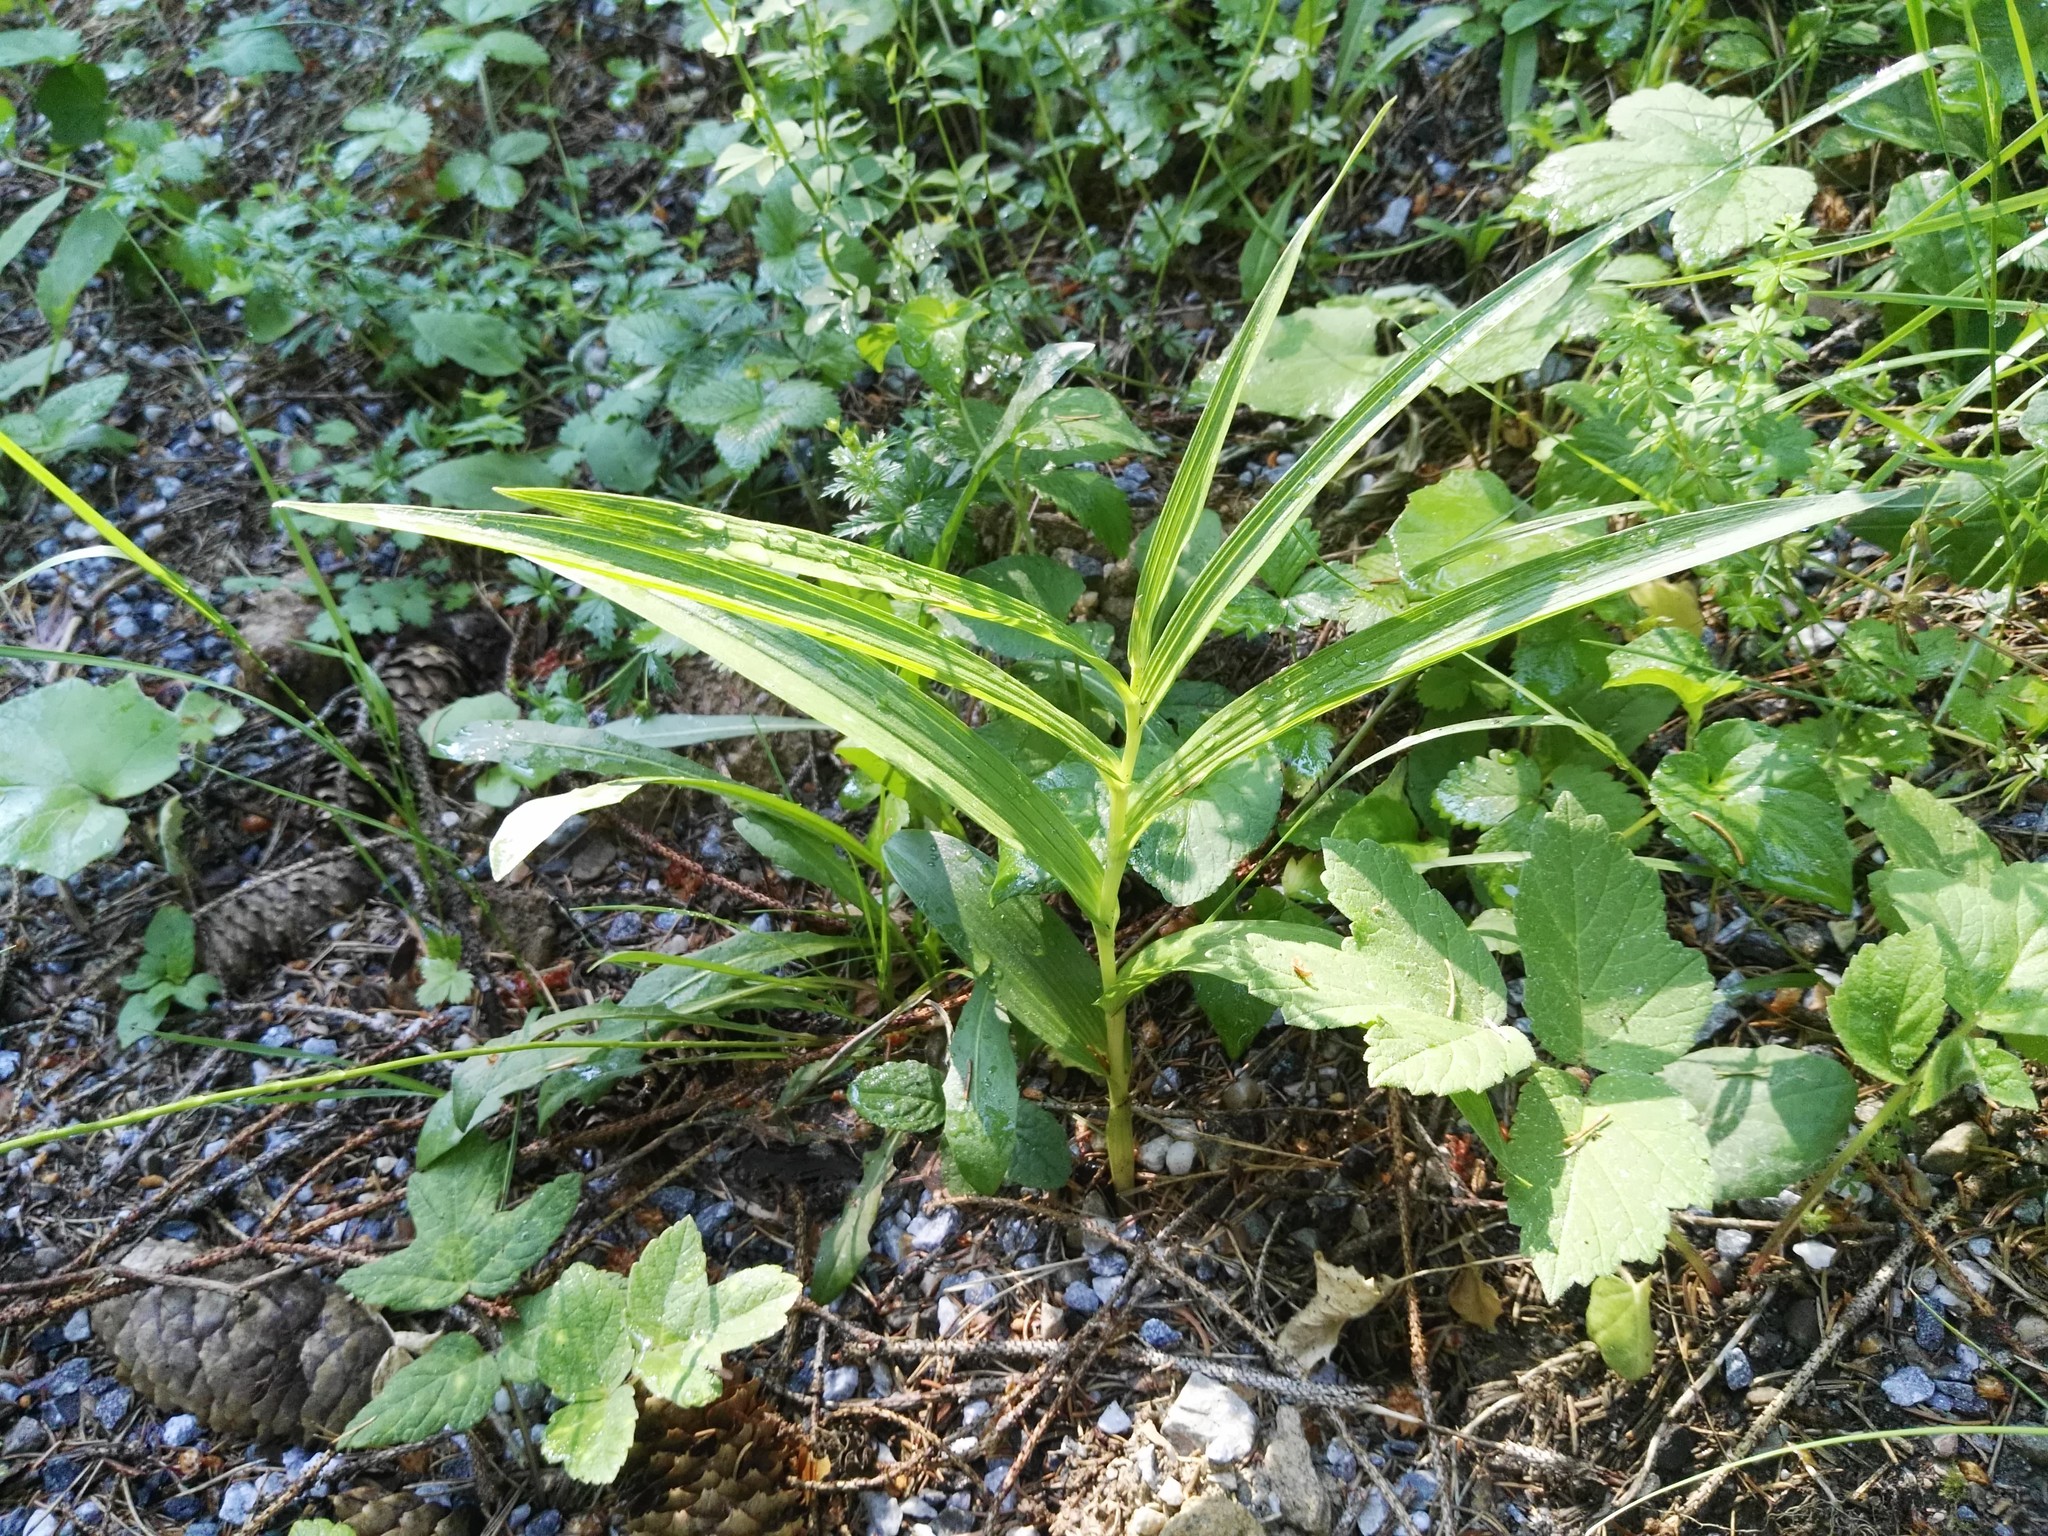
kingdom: Plantae
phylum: Tracheophyta
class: Liliopsida
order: Asparagales
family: Orchidaceae
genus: Cephalanthera
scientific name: Cephalanthera longifolia
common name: Narrow-leaved helleborine
